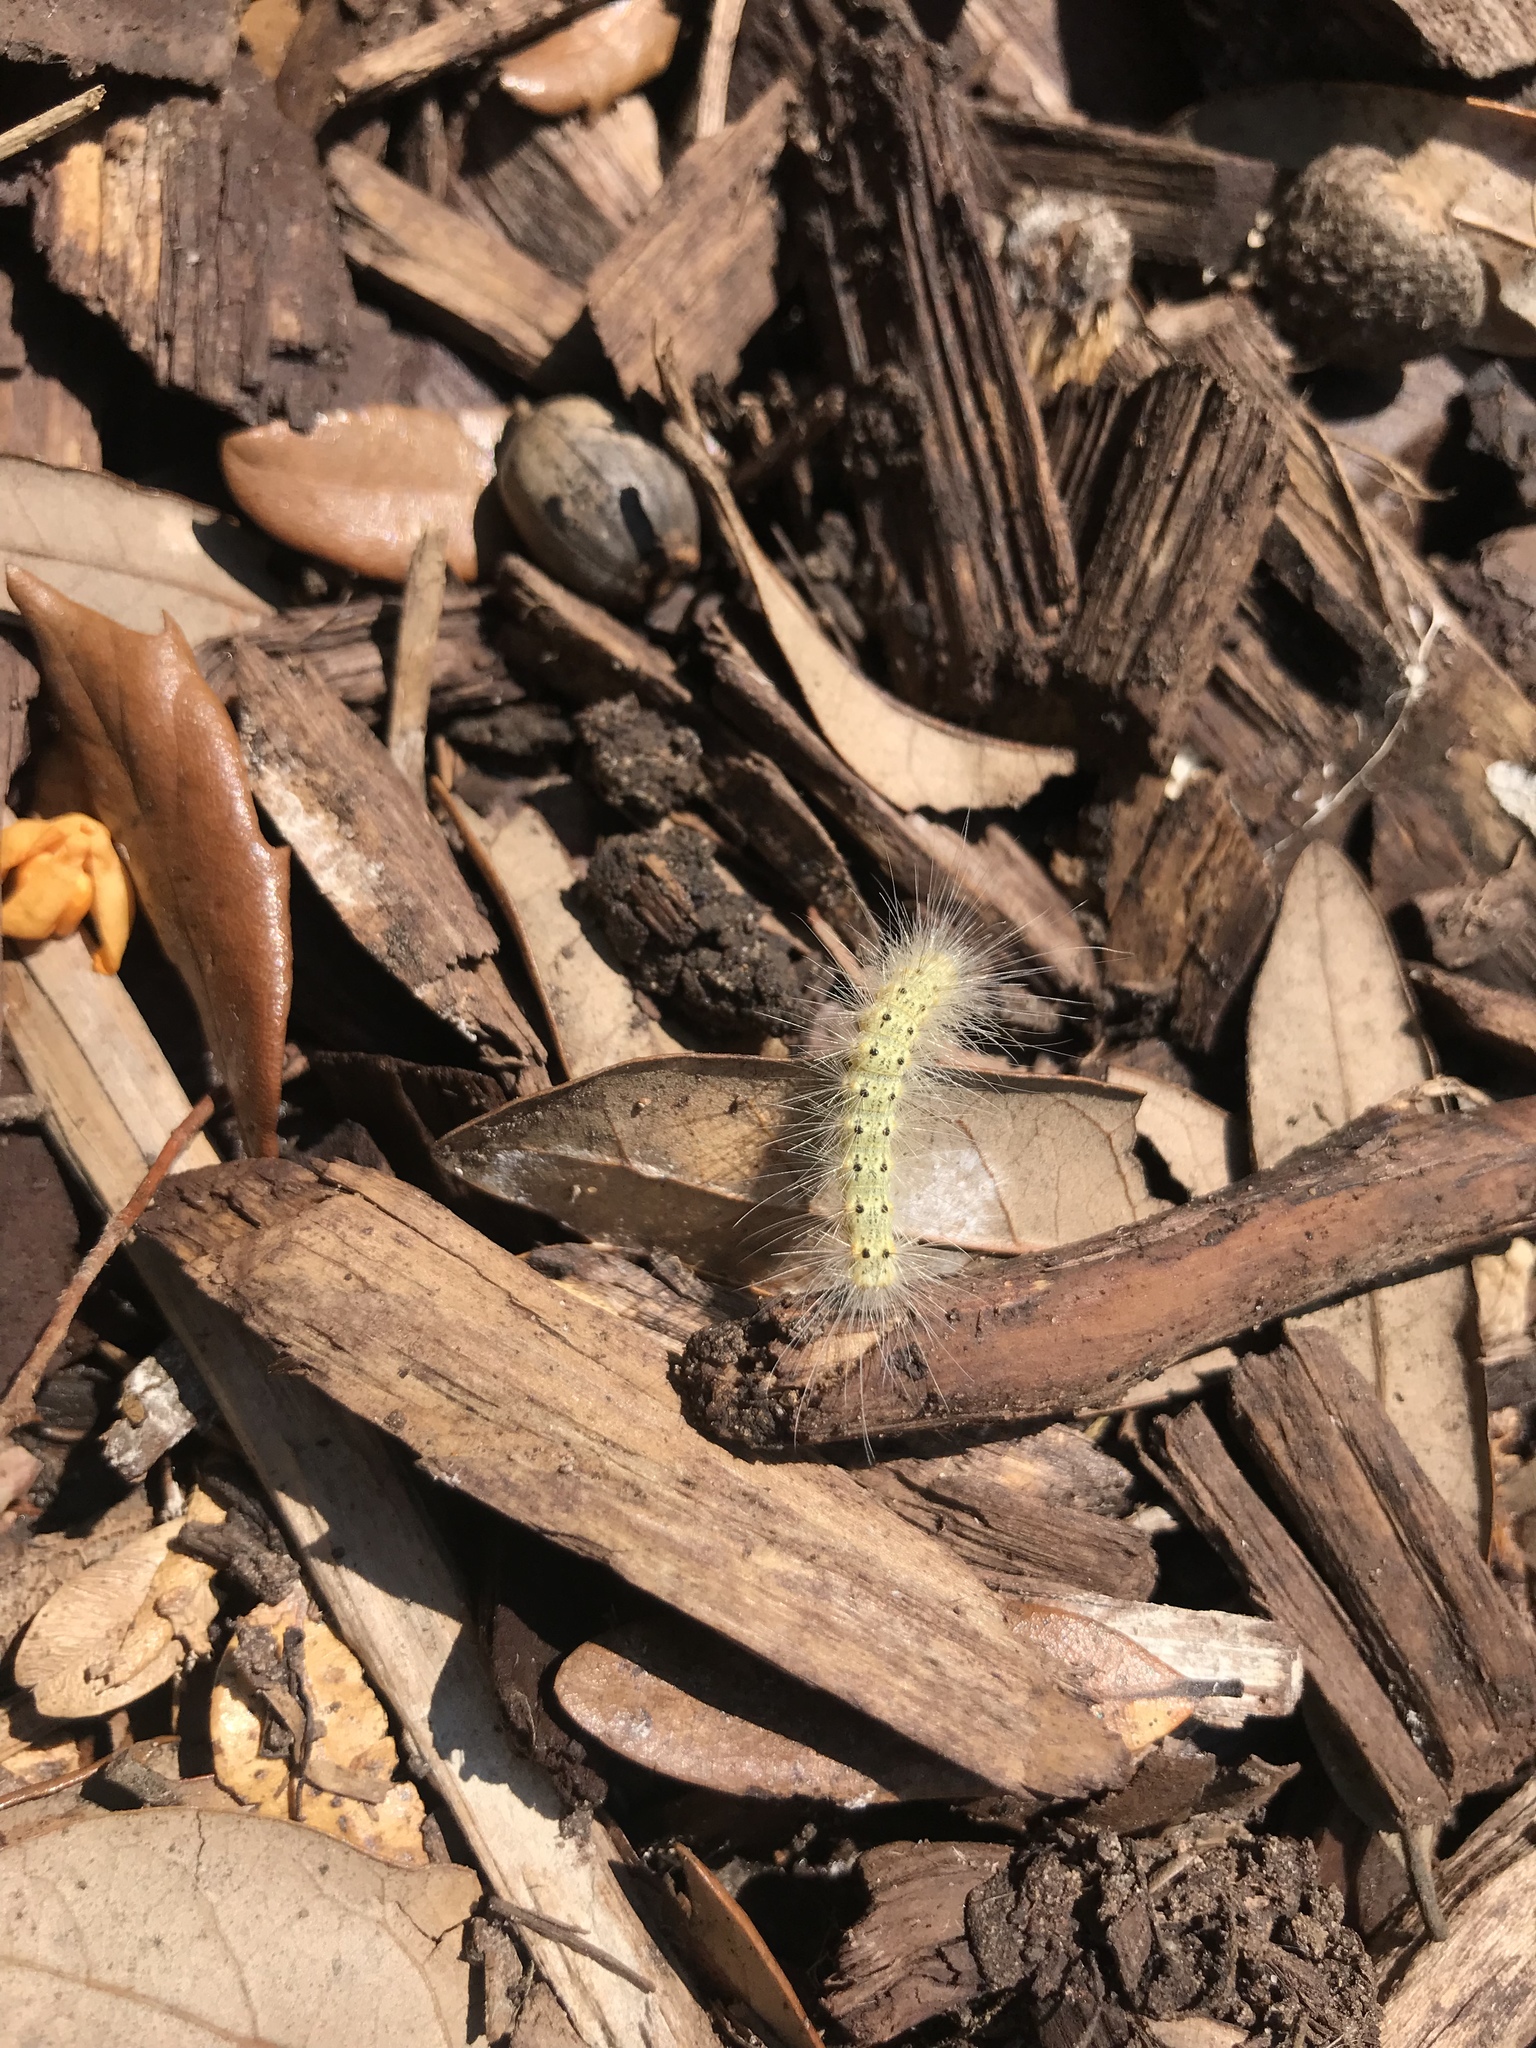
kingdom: Animalia
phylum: Arthropoda
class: Insecta
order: Lepidoptera
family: Erebidae
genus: Hyphantria
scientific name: Hyphantria cunea
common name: American white moth
